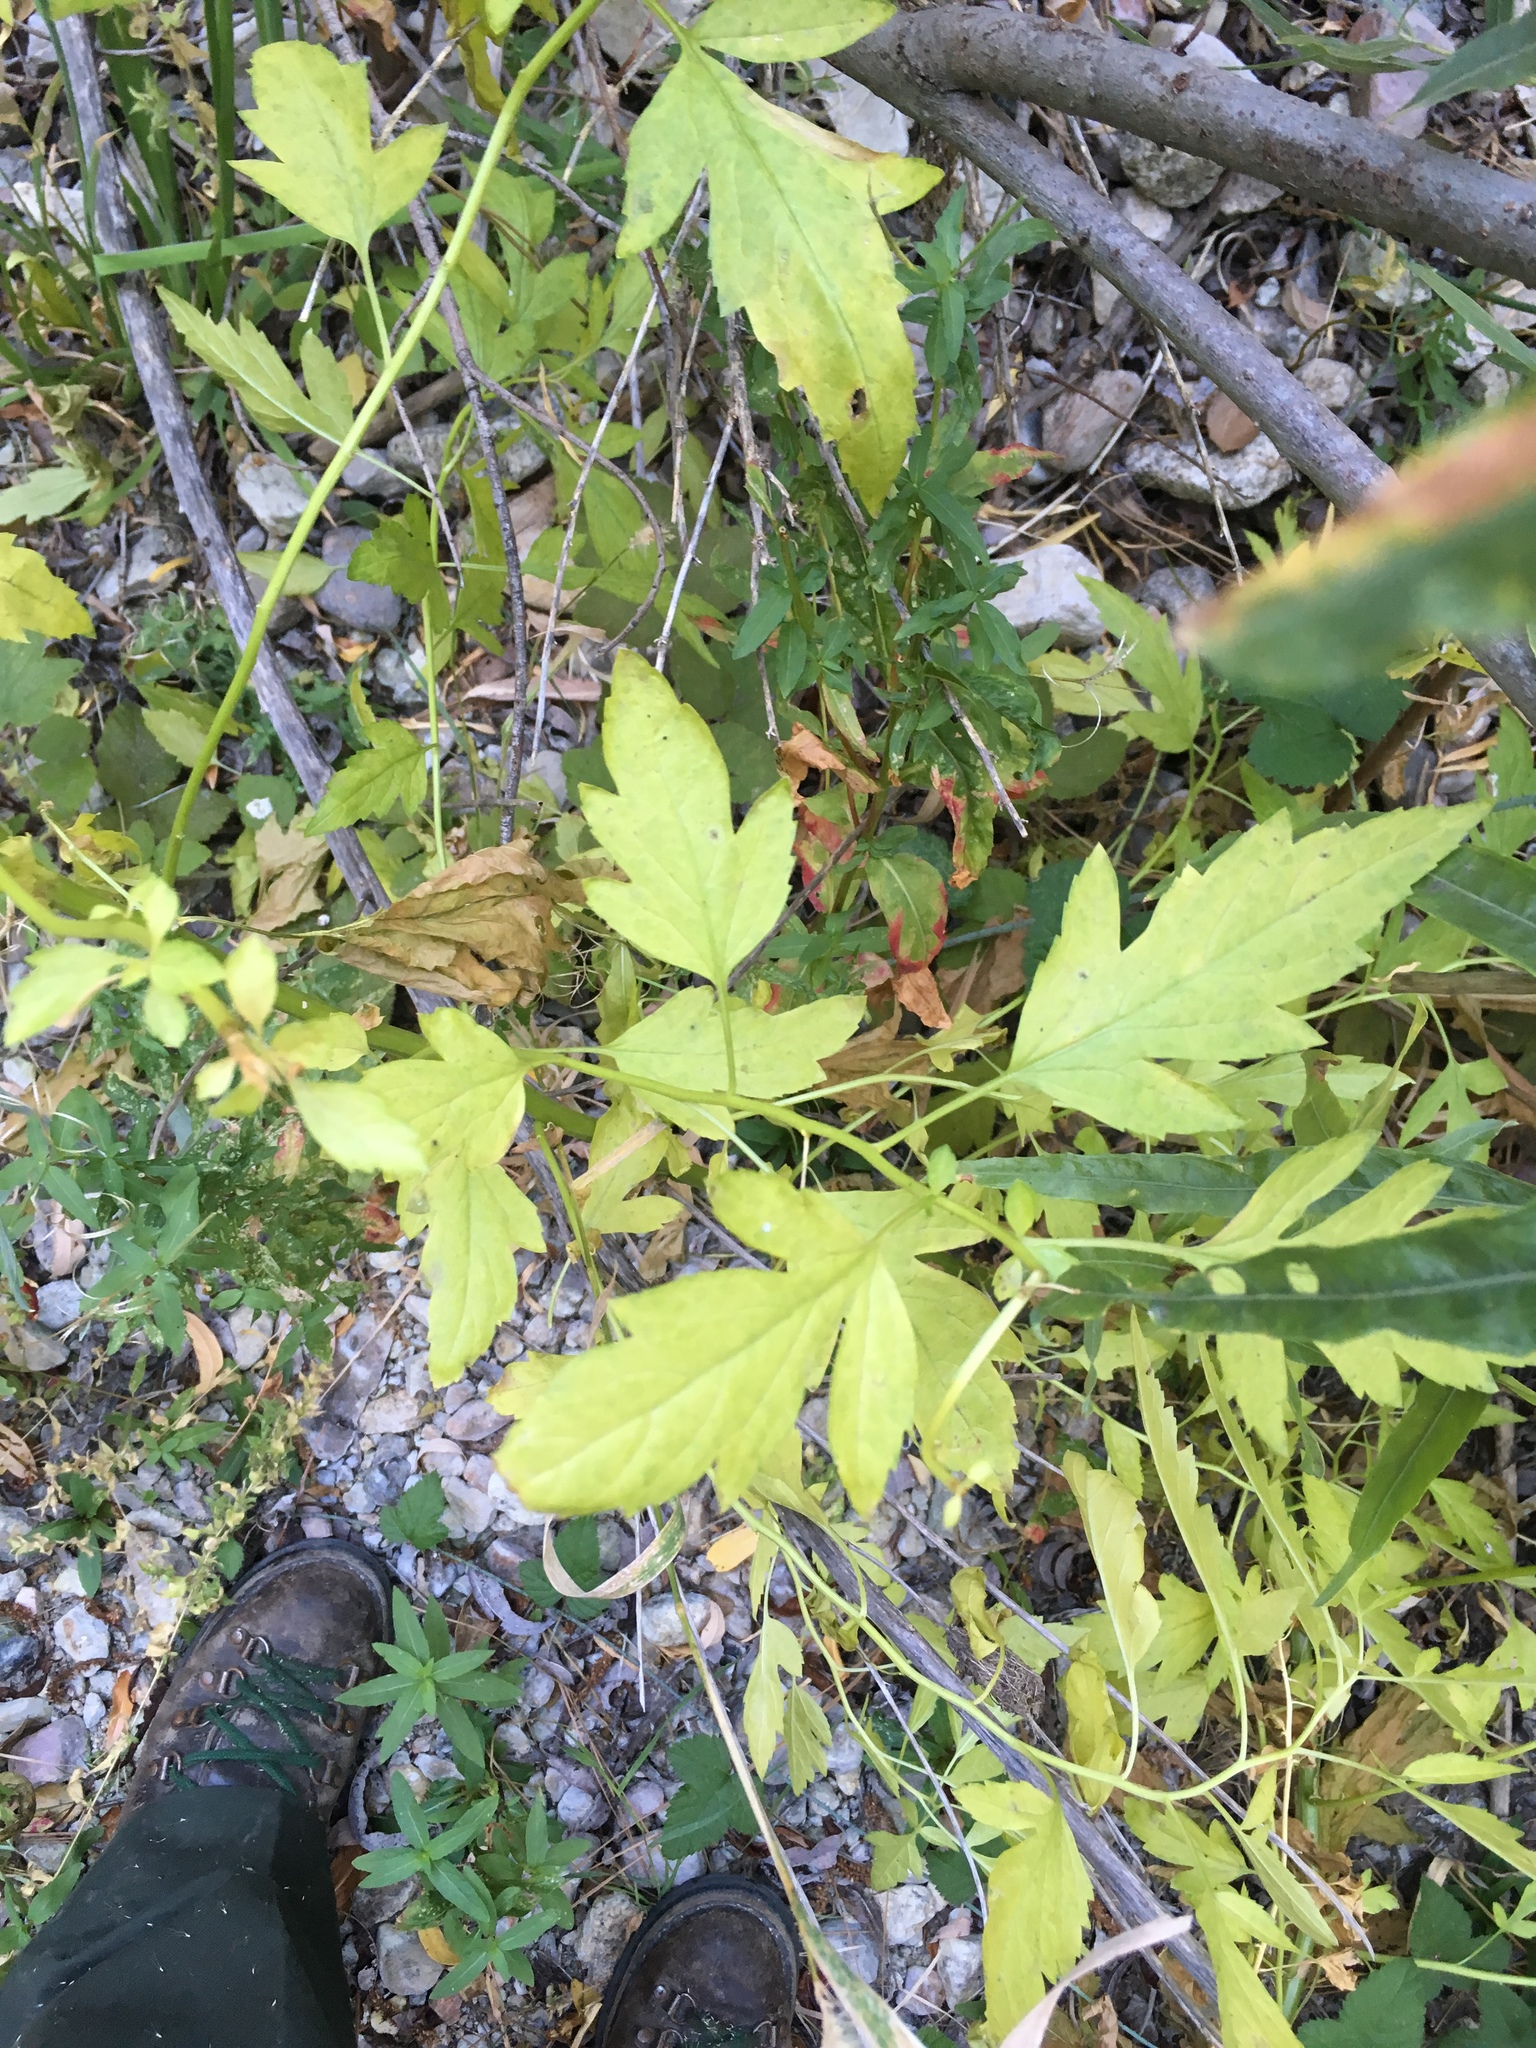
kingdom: Plantae
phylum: Tracheophyta
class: Magnoliopsida
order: Cucurbitales
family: Datiscaceae
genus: Datisca
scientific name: Datisca glomerata
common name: Durango-root
